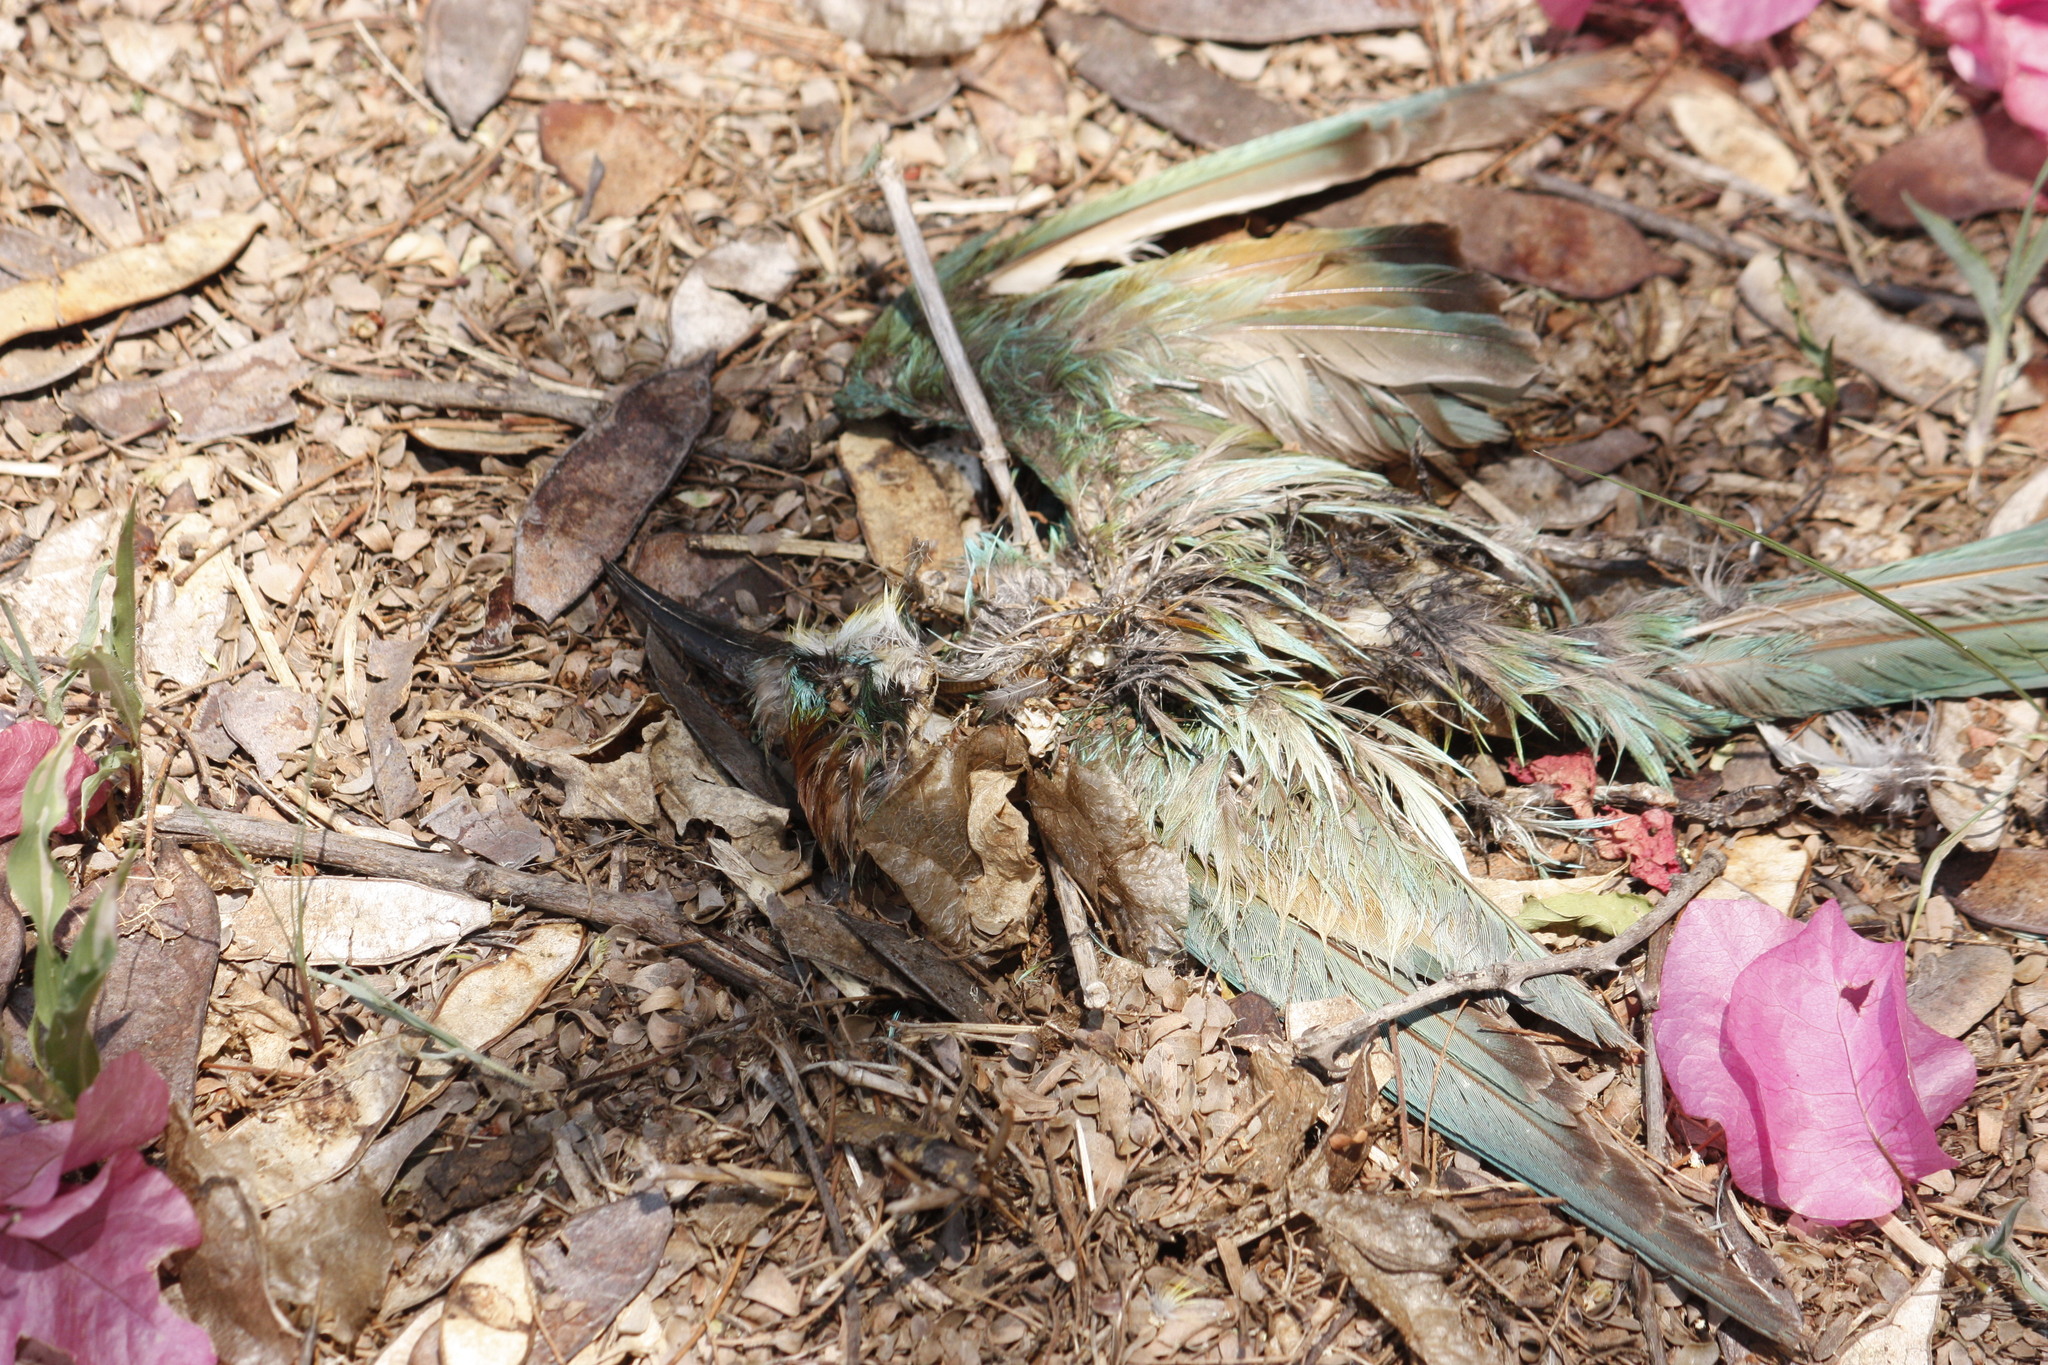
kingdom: Animalia
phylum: Chordata
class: Aves
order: Coraciiformes
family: Meropidae
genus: Merops
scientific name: Merops apiaster
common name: European bee-eater
